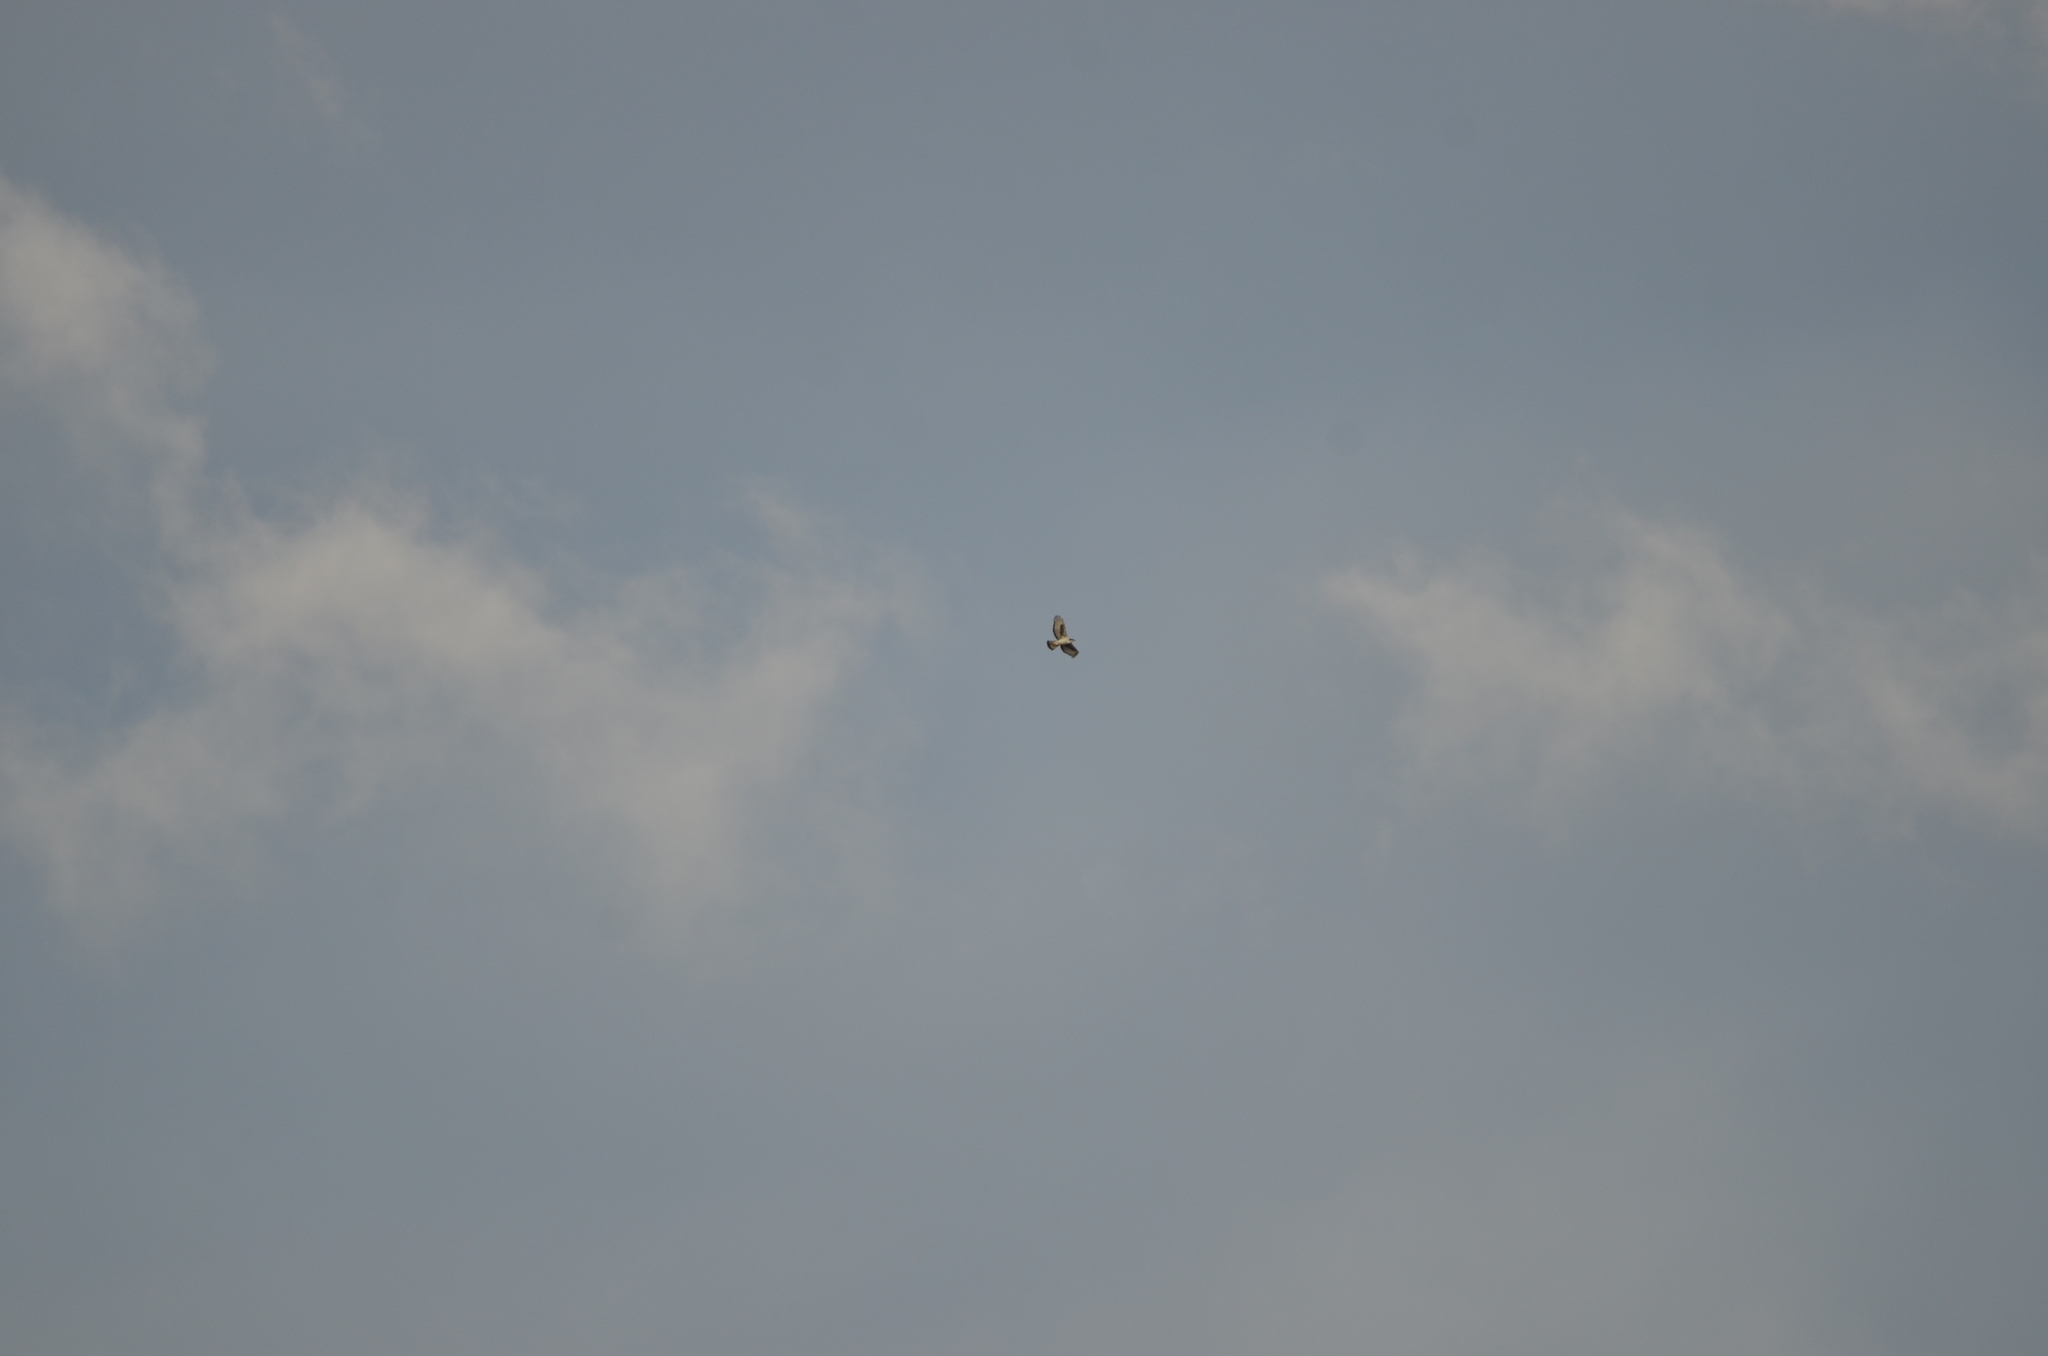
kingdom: Animalia
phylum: Chordata
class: Aves
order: Accipitriformes
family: Accipitridae
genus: Aquila
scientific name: Aquila spilogaster
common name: African hawk-eagle
